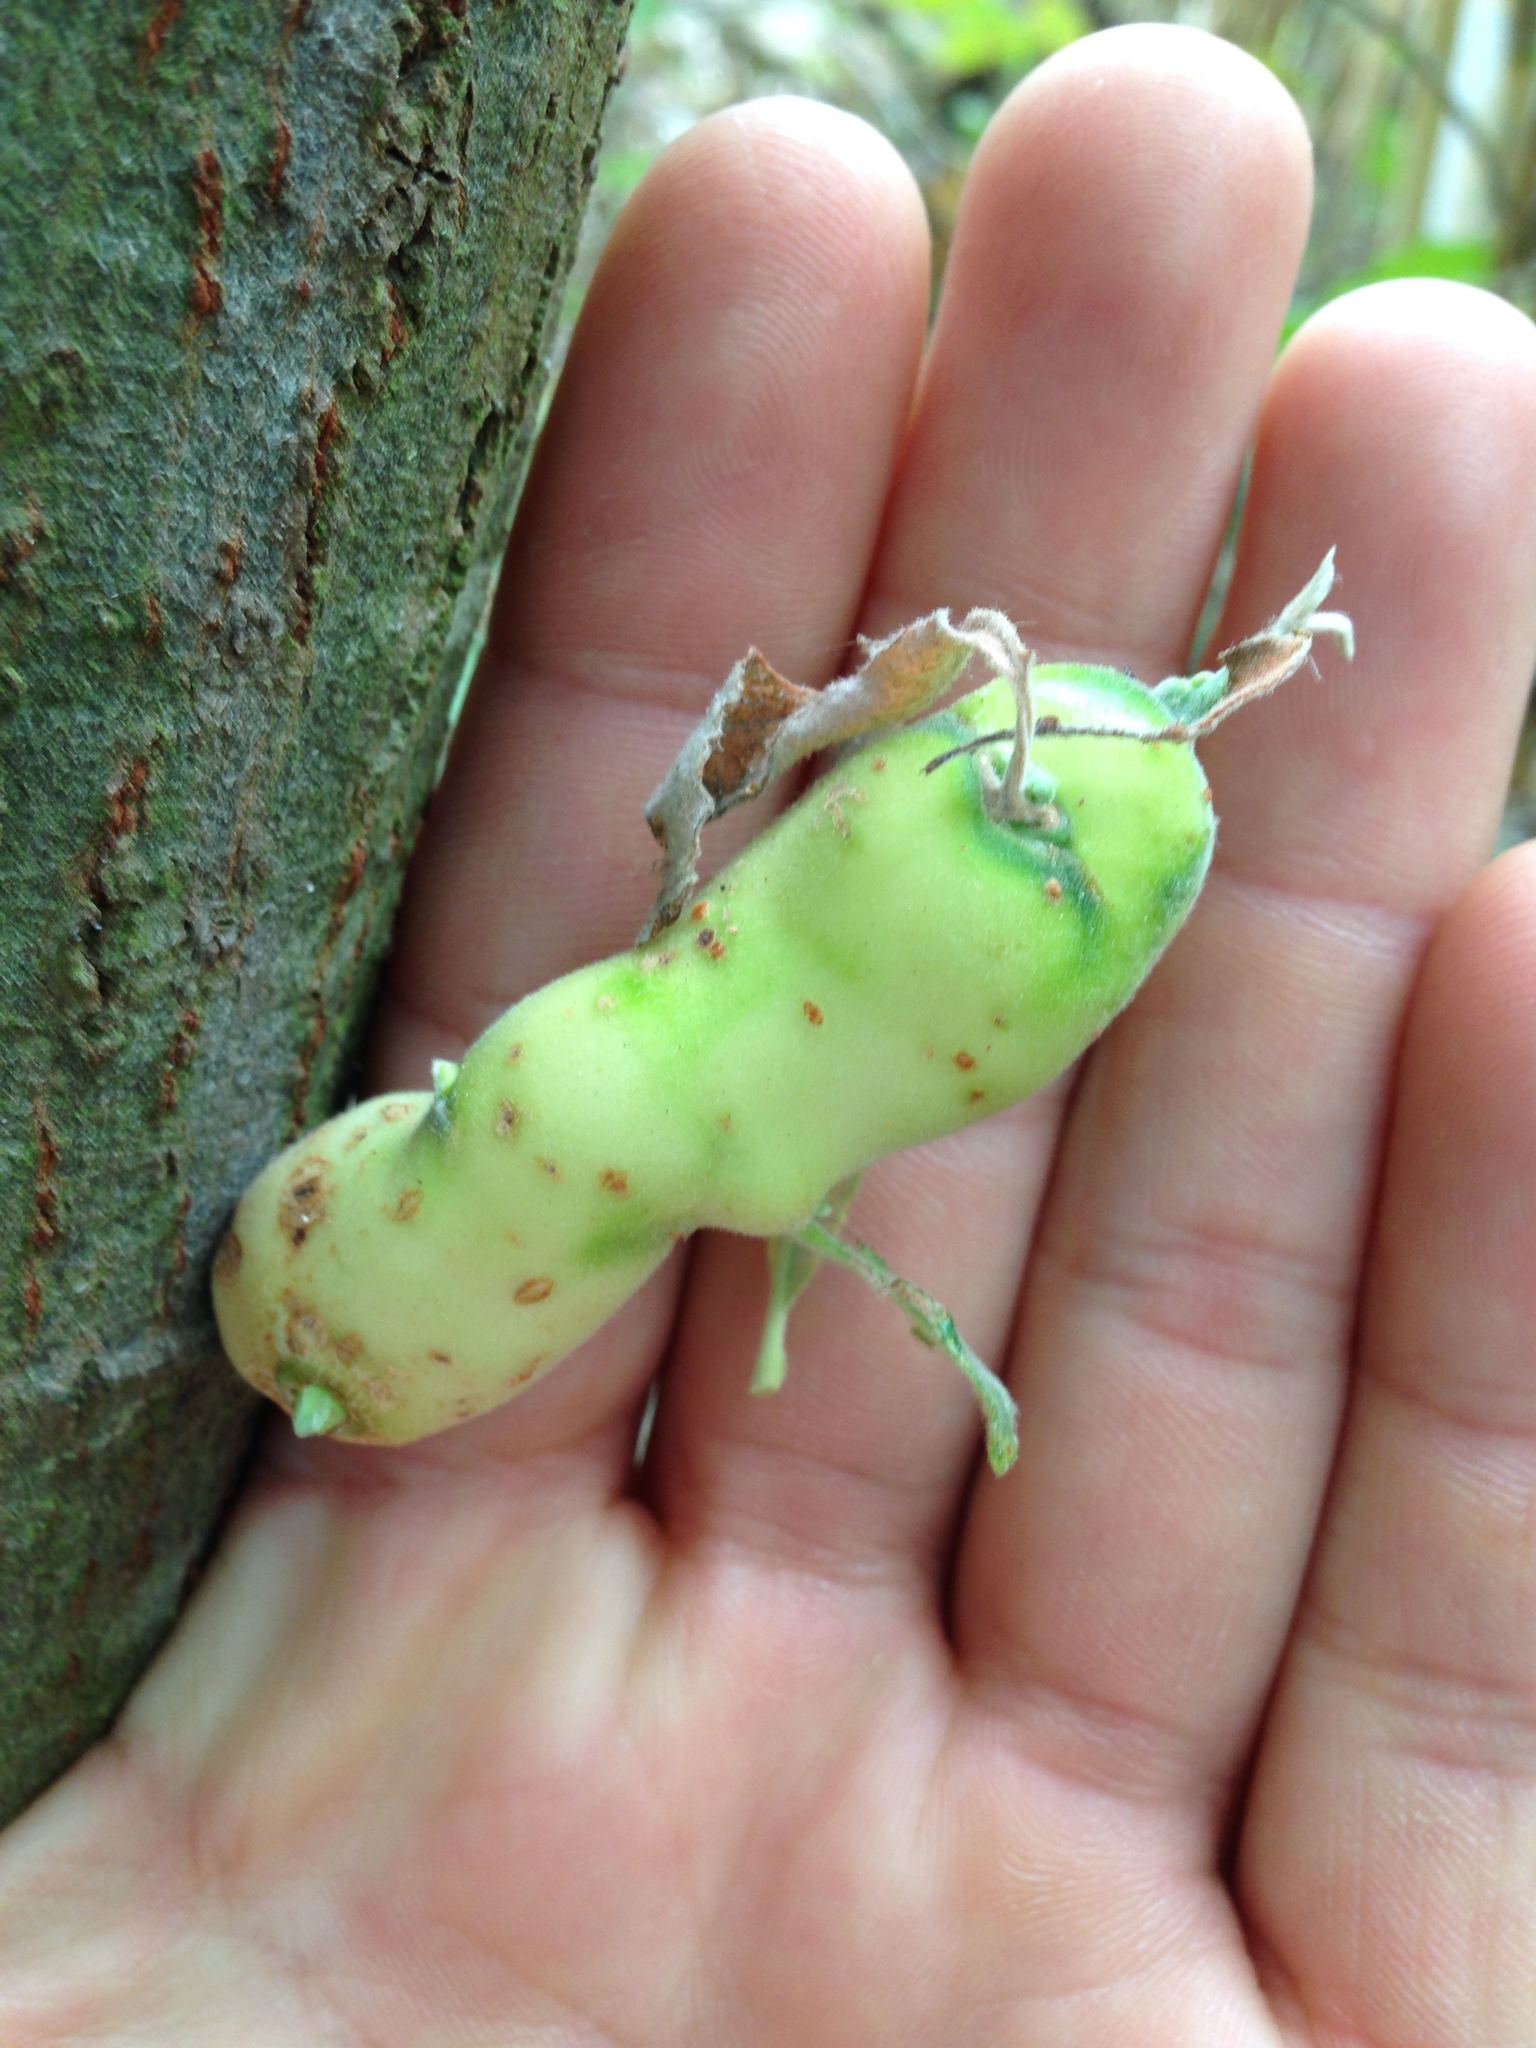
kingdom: Animalia
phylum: Arthropoda
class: Insecta
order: Diptera
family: Cecidomyiidae
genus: Rabdophaga
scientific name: Rabdophaga salicisbatatas
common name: Potato gall midge
